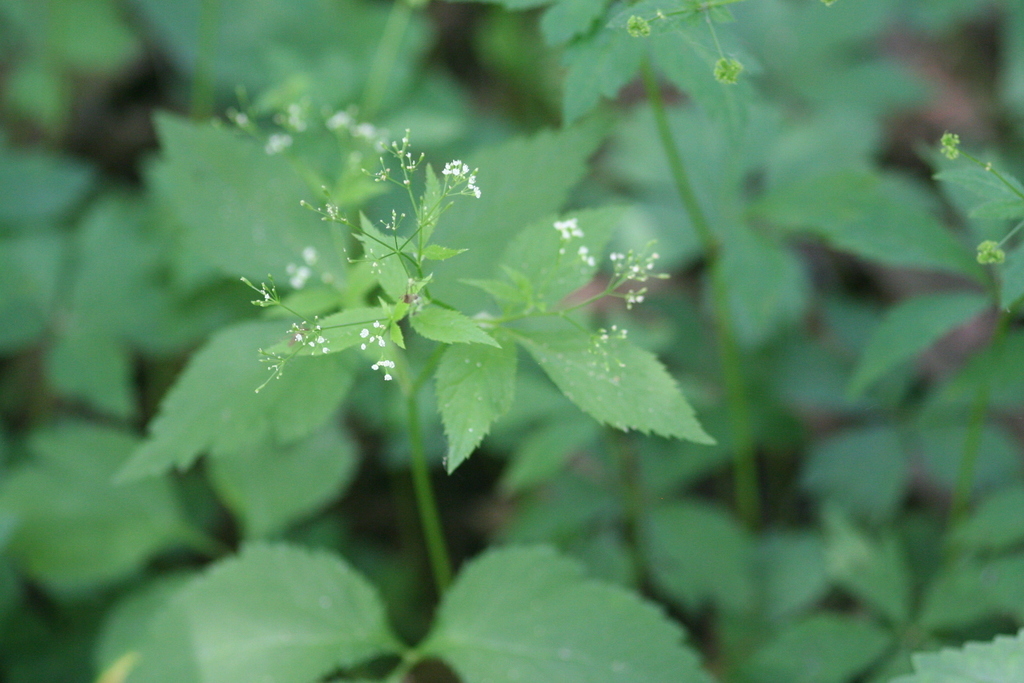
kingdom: Plantae
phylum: Tracheophyta
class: Magnoliopsida
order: Apiales
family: Apiaceae
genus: Cryptotaenia
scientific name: Cryptotaenia canadensis
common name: Honewort
